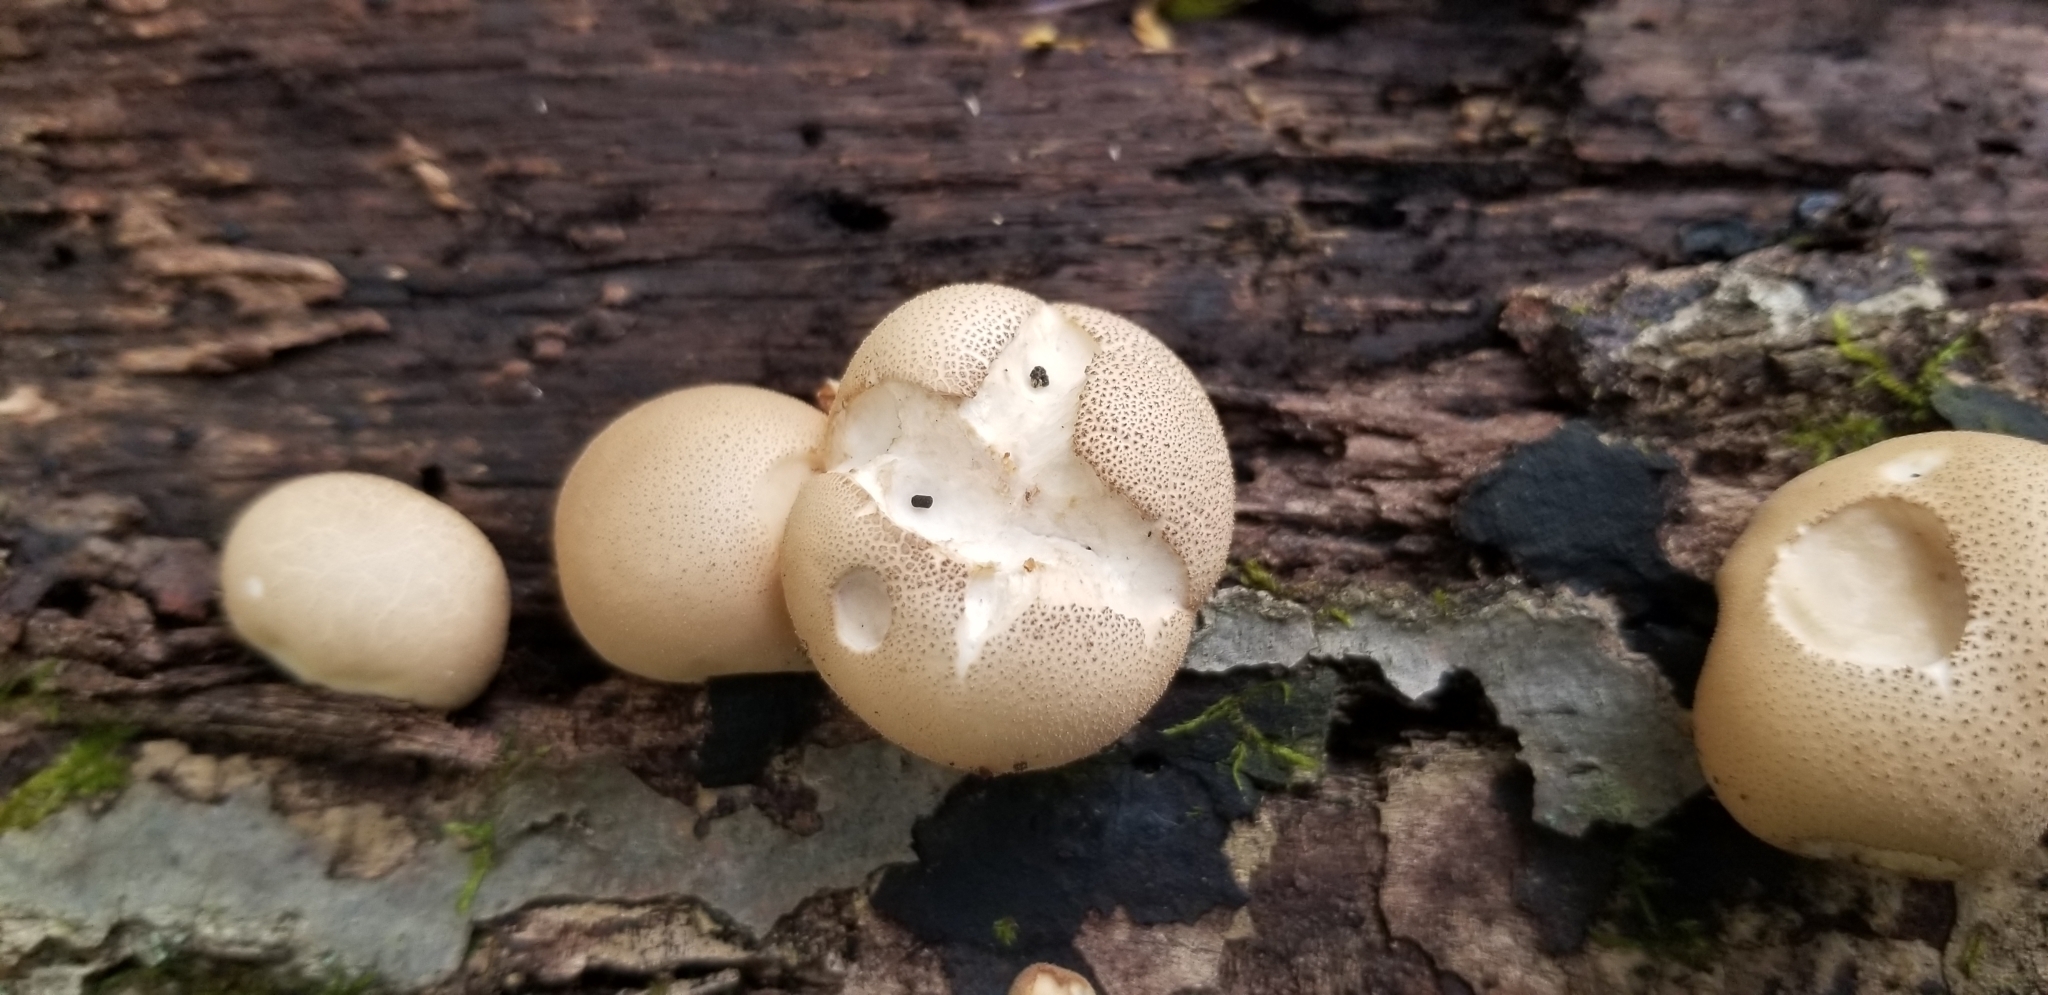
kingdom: Fungi
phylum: Basidiomycota
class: Agaricomycetes
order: Agaricales
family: Lycoperdaceae
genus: Apioperdon
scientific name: Apioperdon pyriforme
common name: Pear-shaped puffball
